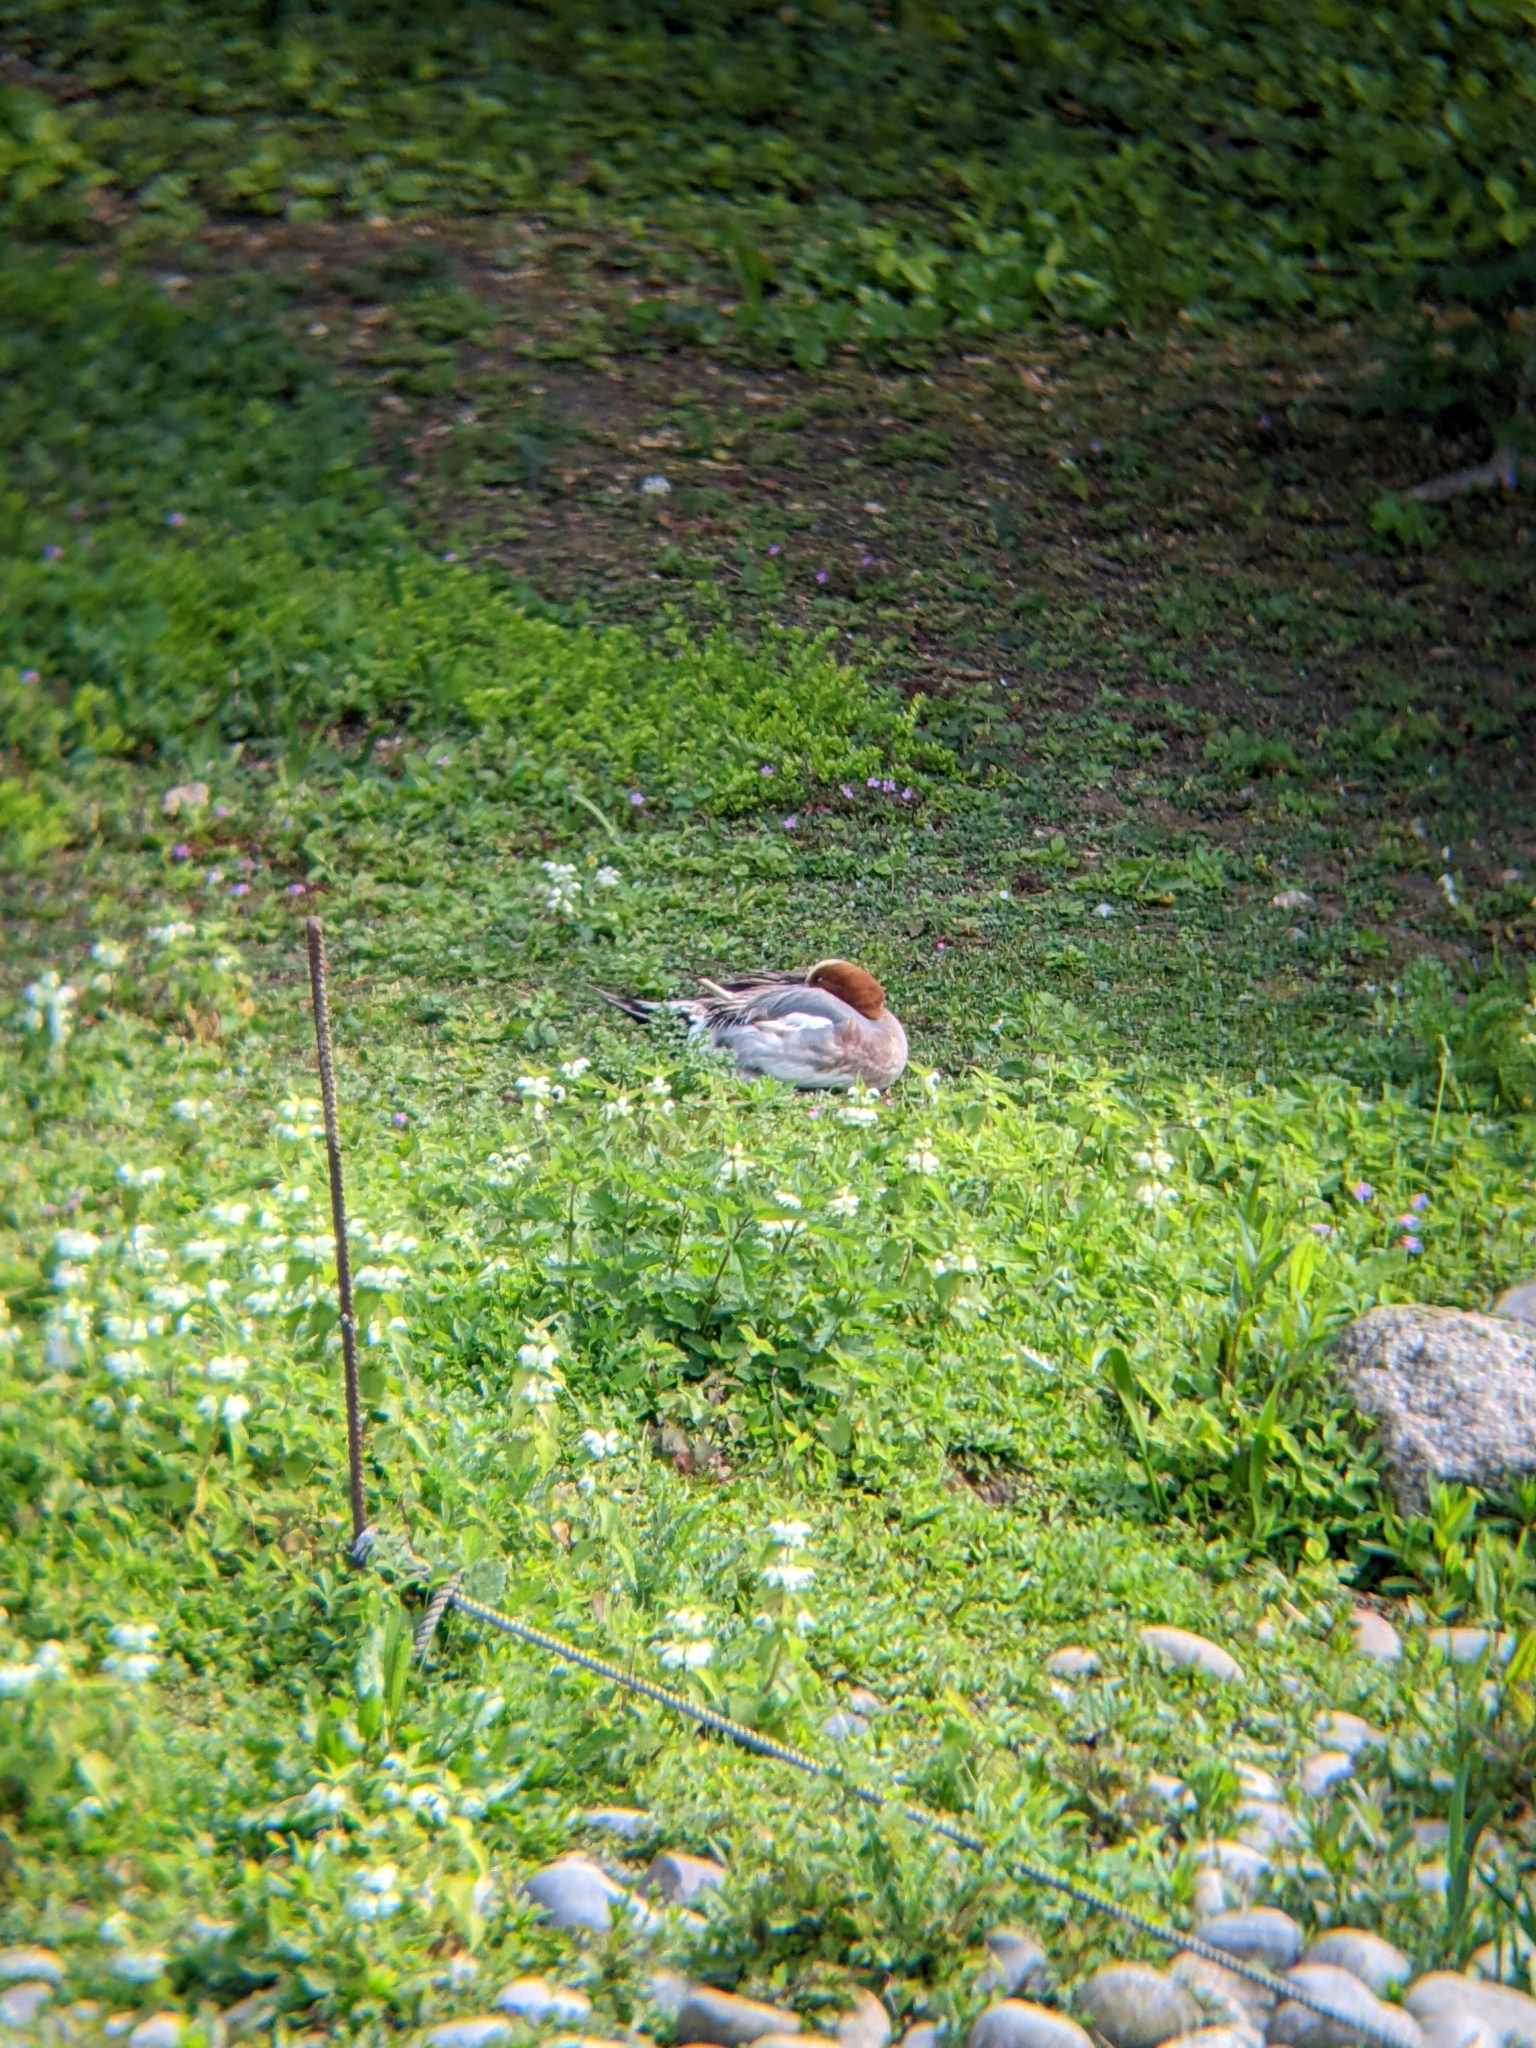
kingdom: Animalia
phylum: Chordata
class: Aves
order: Anseriformes
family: Anatidae
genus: Mareca
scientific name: Mareca penelope
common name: Eurasian wigeon
